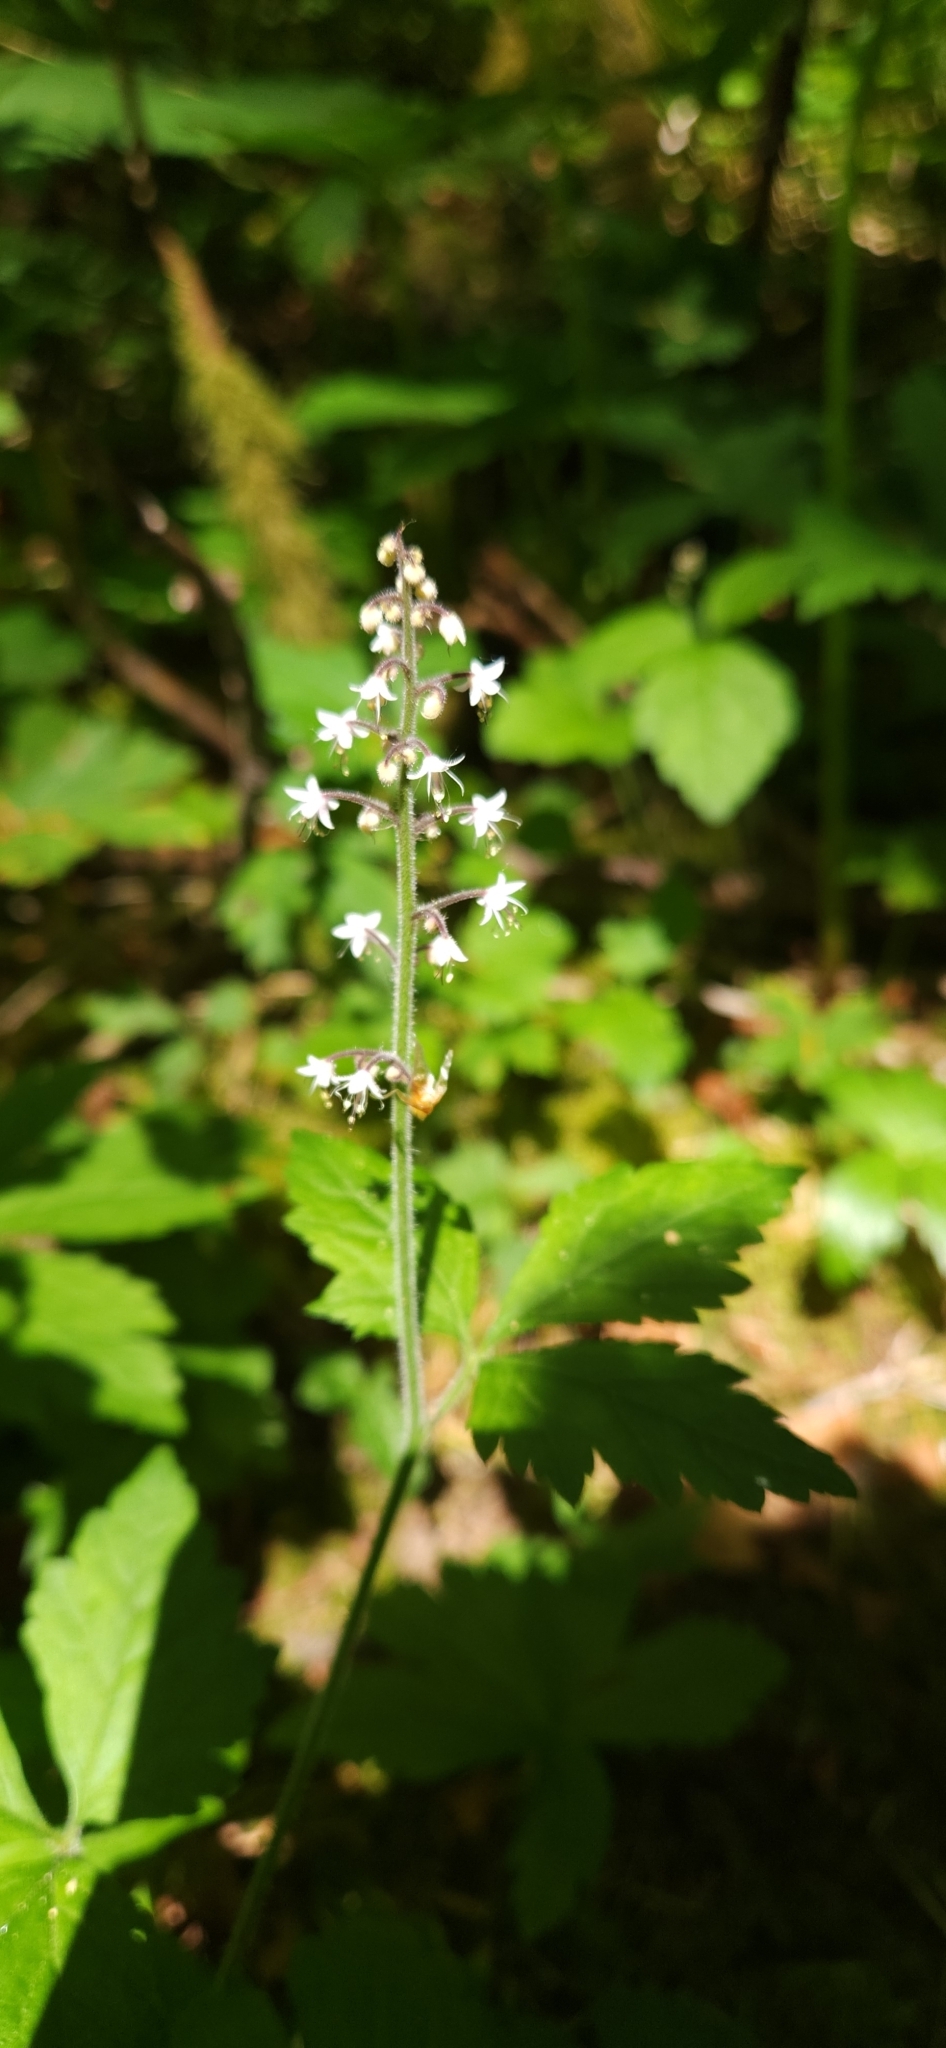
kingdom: Plantae
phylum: Tracheophyta
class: Magnoliopsida
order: Saxifragales
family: Saxifragaceae
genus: Tiarella
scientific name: Tiarella trifoliata
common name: Sugar-scoop
